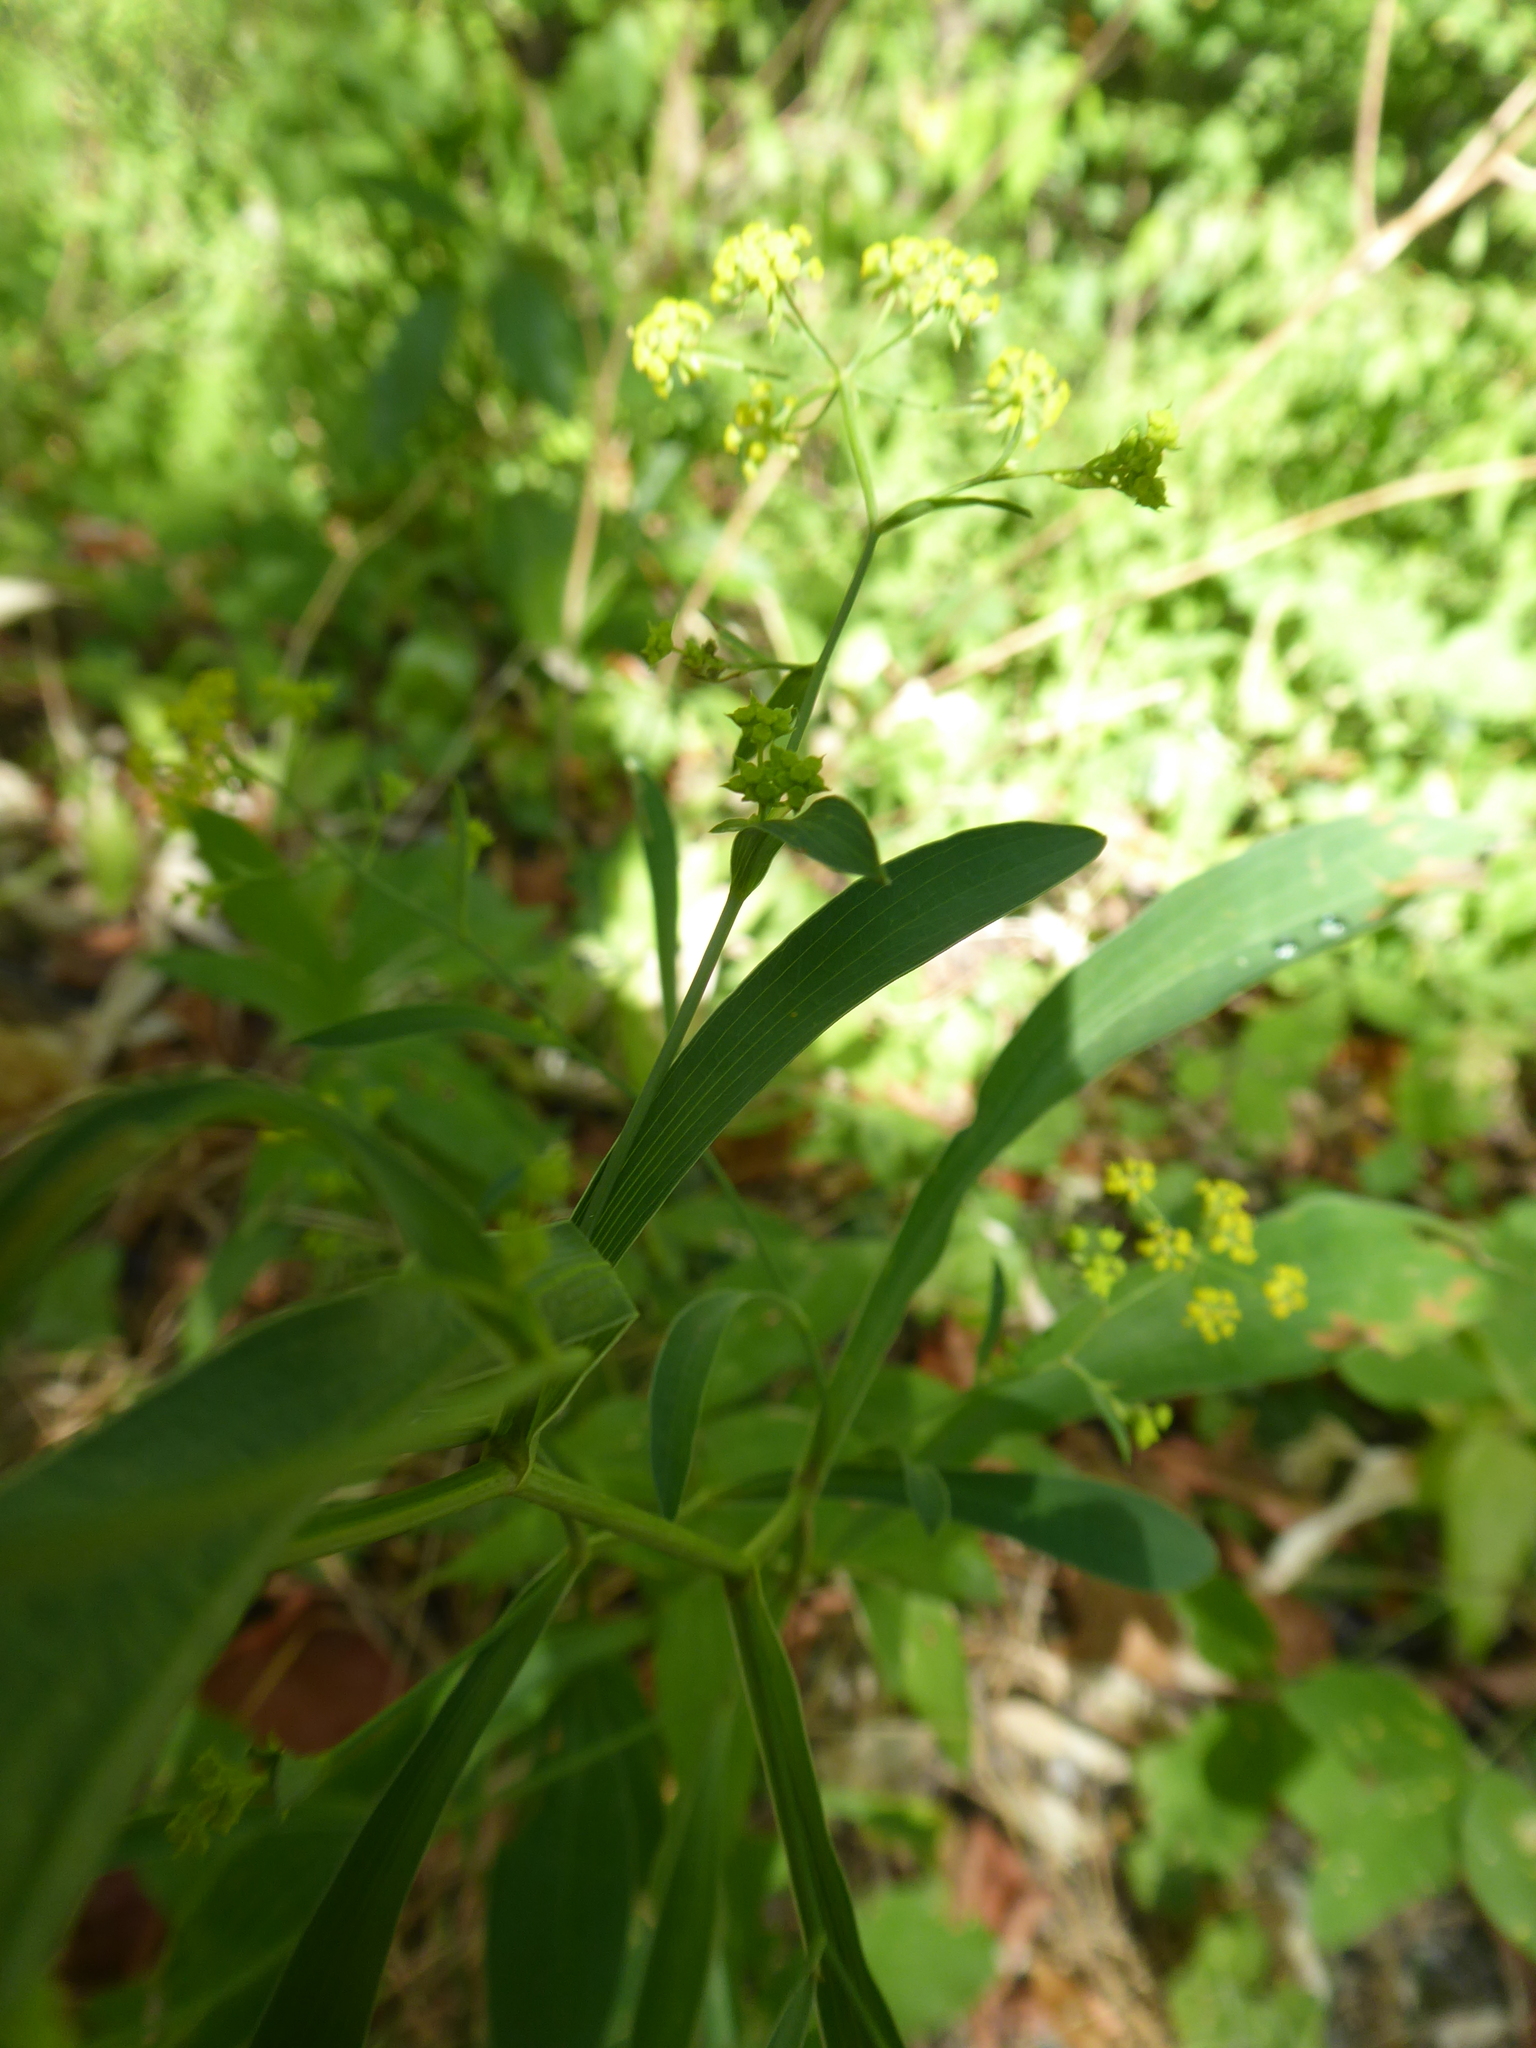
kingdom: Plantae
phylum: Tracheophyta
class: Magnoliopsida
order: Apiales
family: Apiaceae
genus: Bupleurum
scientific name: Bupleurum falcatum
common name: Sickle-leaved hare's-ear
